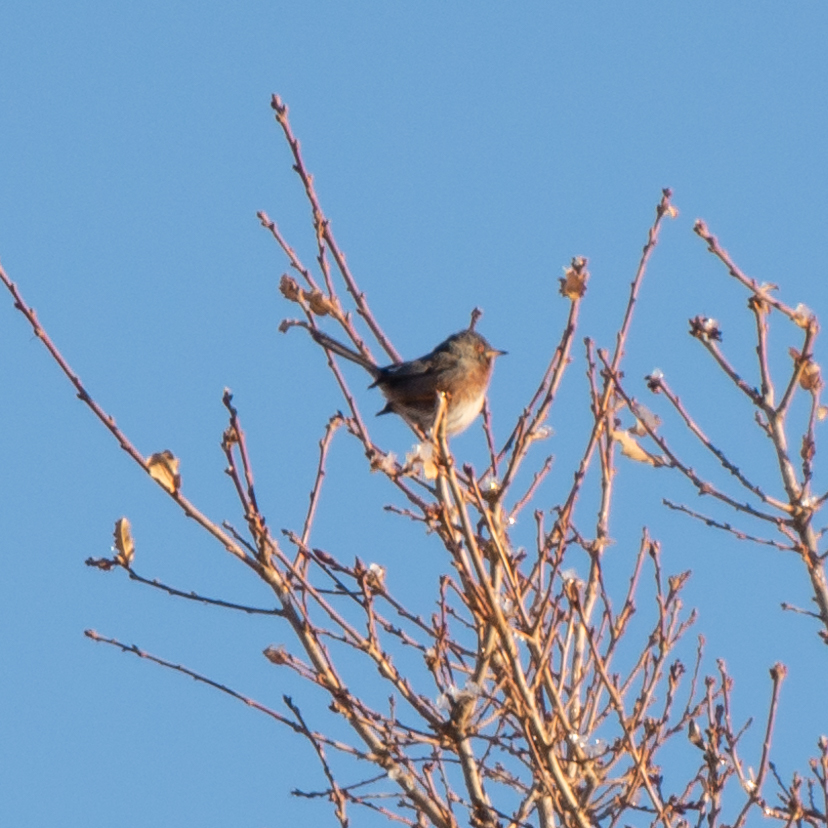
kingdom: Animalia
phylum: Chordata
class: Aves
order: Passeriformes
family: Sylviidae
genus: Sylvia
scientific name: Sylvia undata
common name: Dartford warbler
